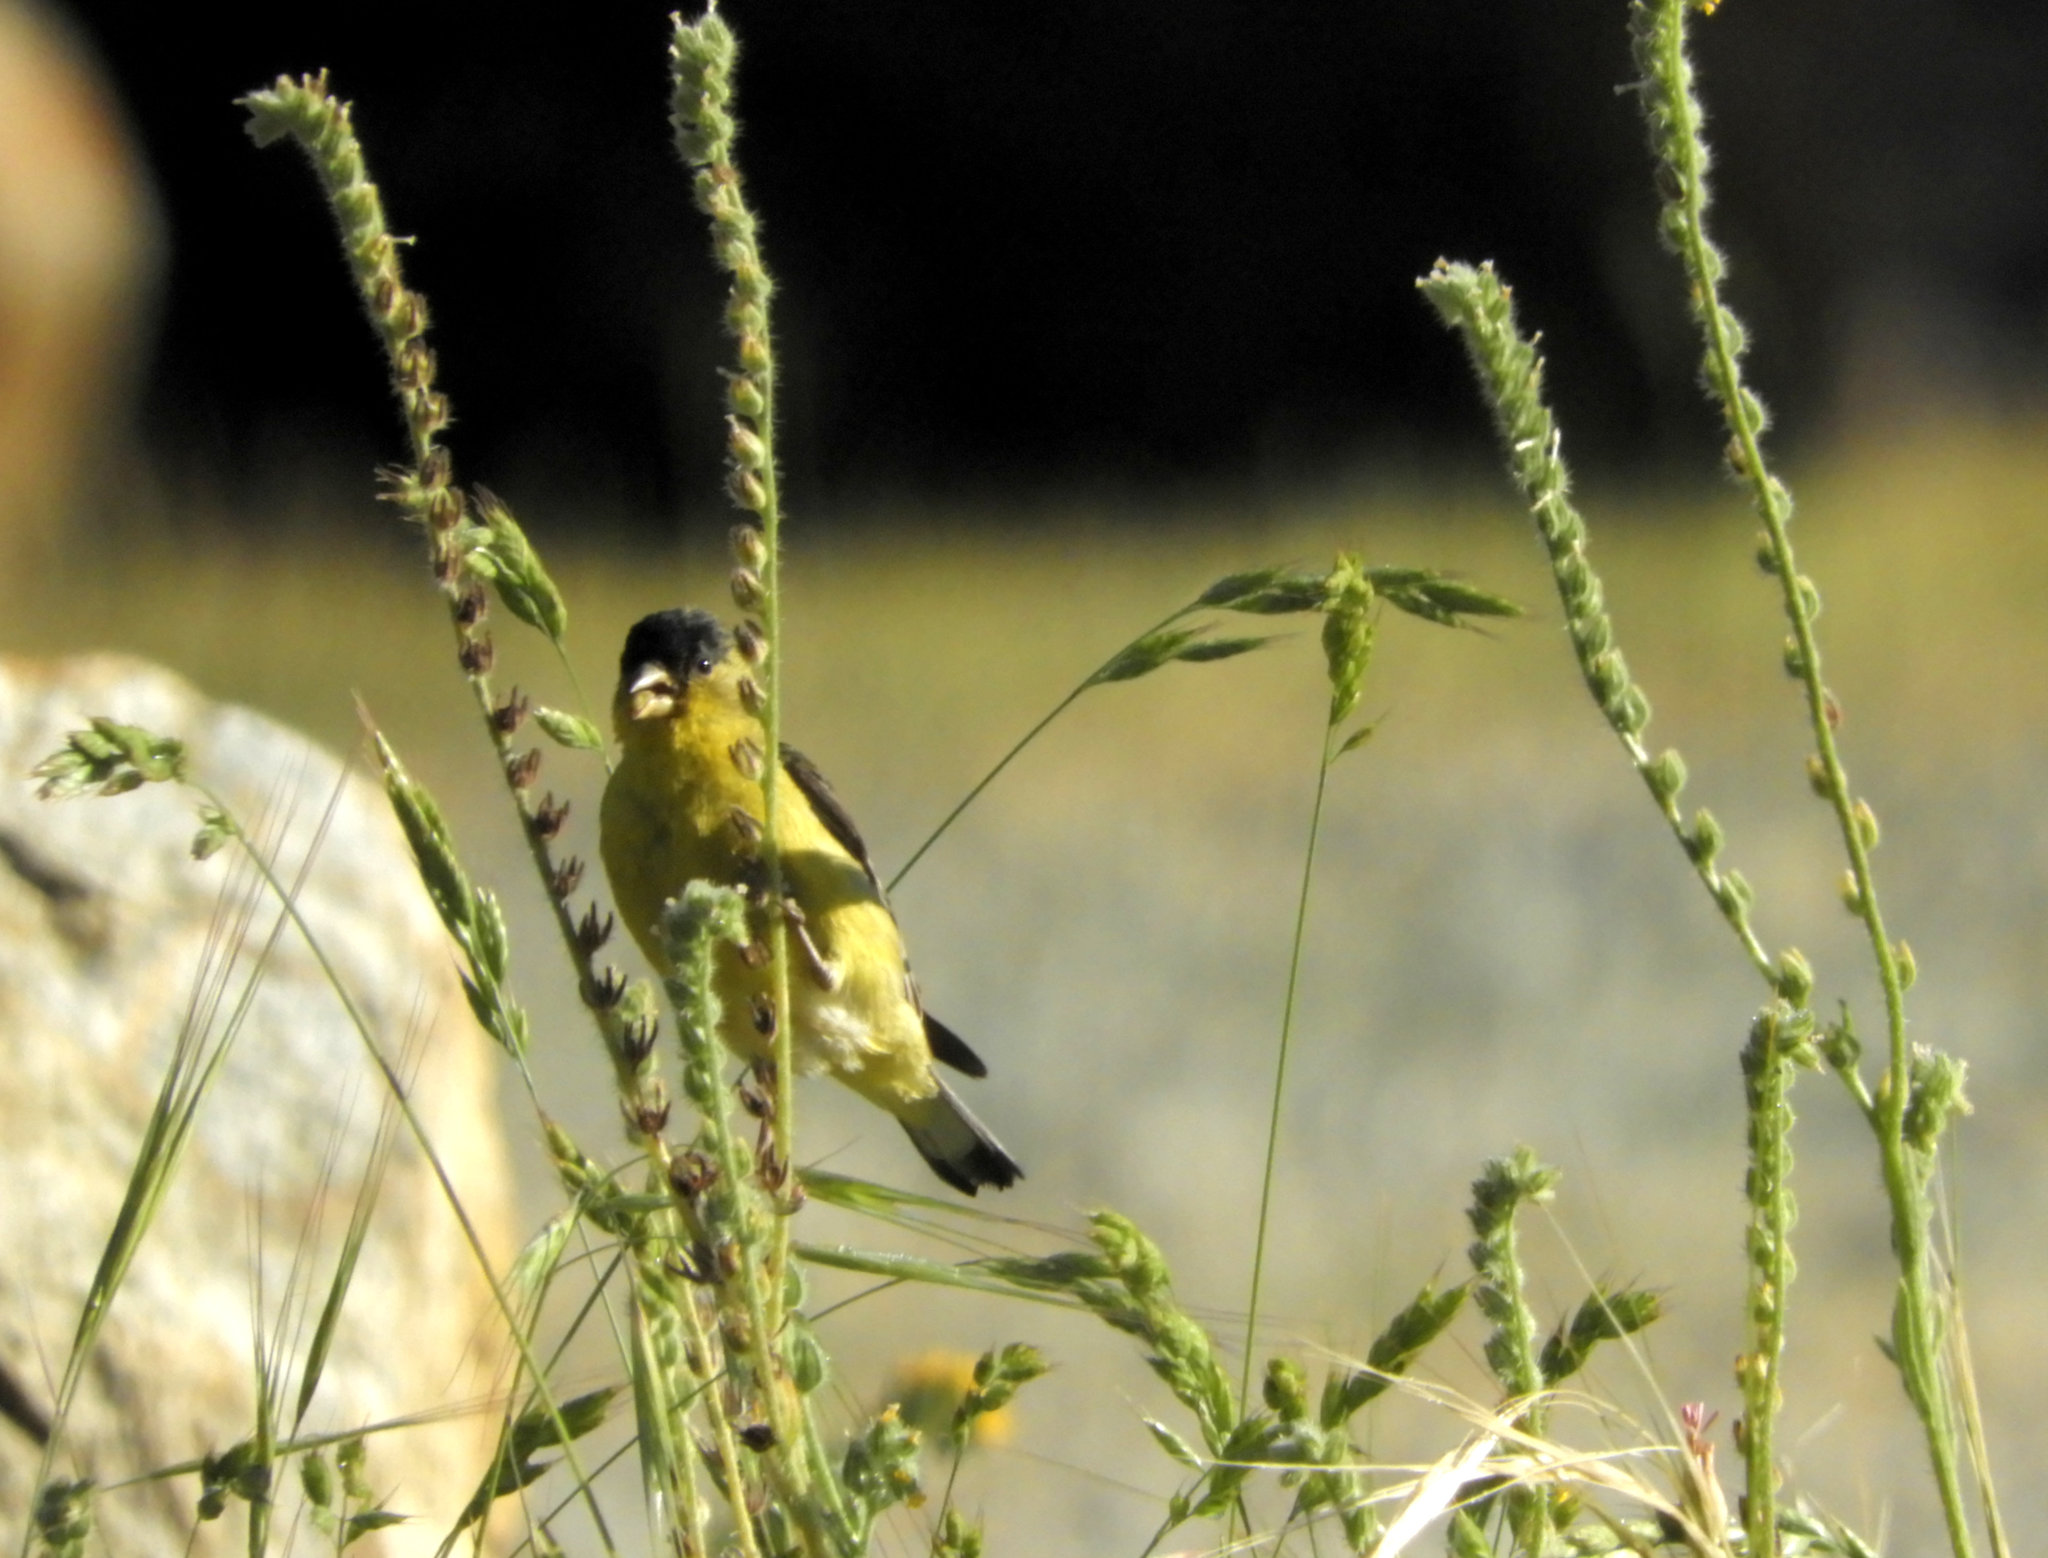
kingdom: Animalia
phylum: Chordata
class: Aves
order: Passeriformes
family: Fringillidae
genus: Spinus
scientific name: Spinus psaltria
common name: Lesser goldfinch
